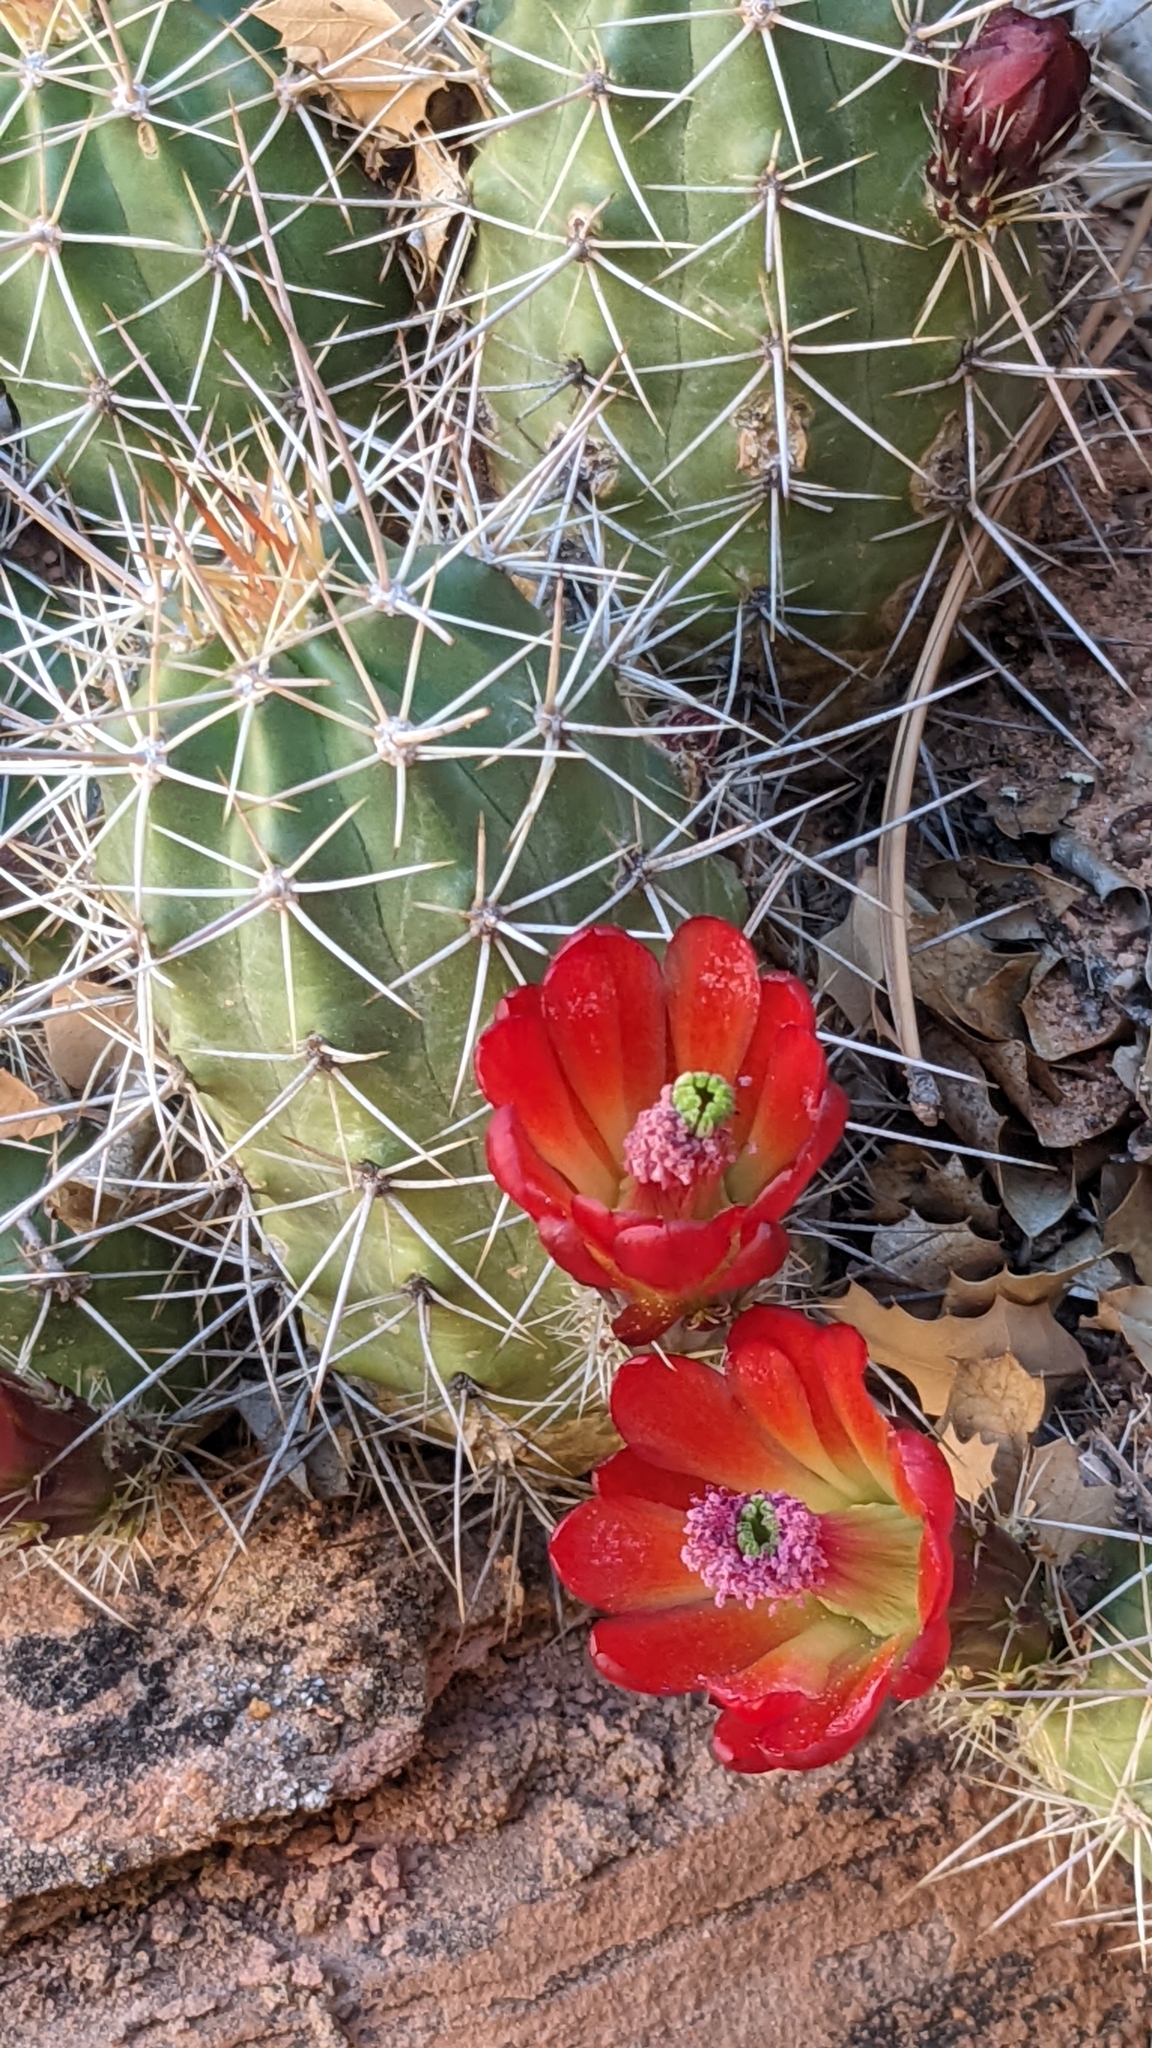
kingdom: Plantae
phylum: Tracheophyta
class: Magnoliopsida
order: Caryophyllales
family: Cactaceae
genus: Echinocereus
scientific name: Echinocereus triglochidiatus
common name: Claretcup hedgehog
